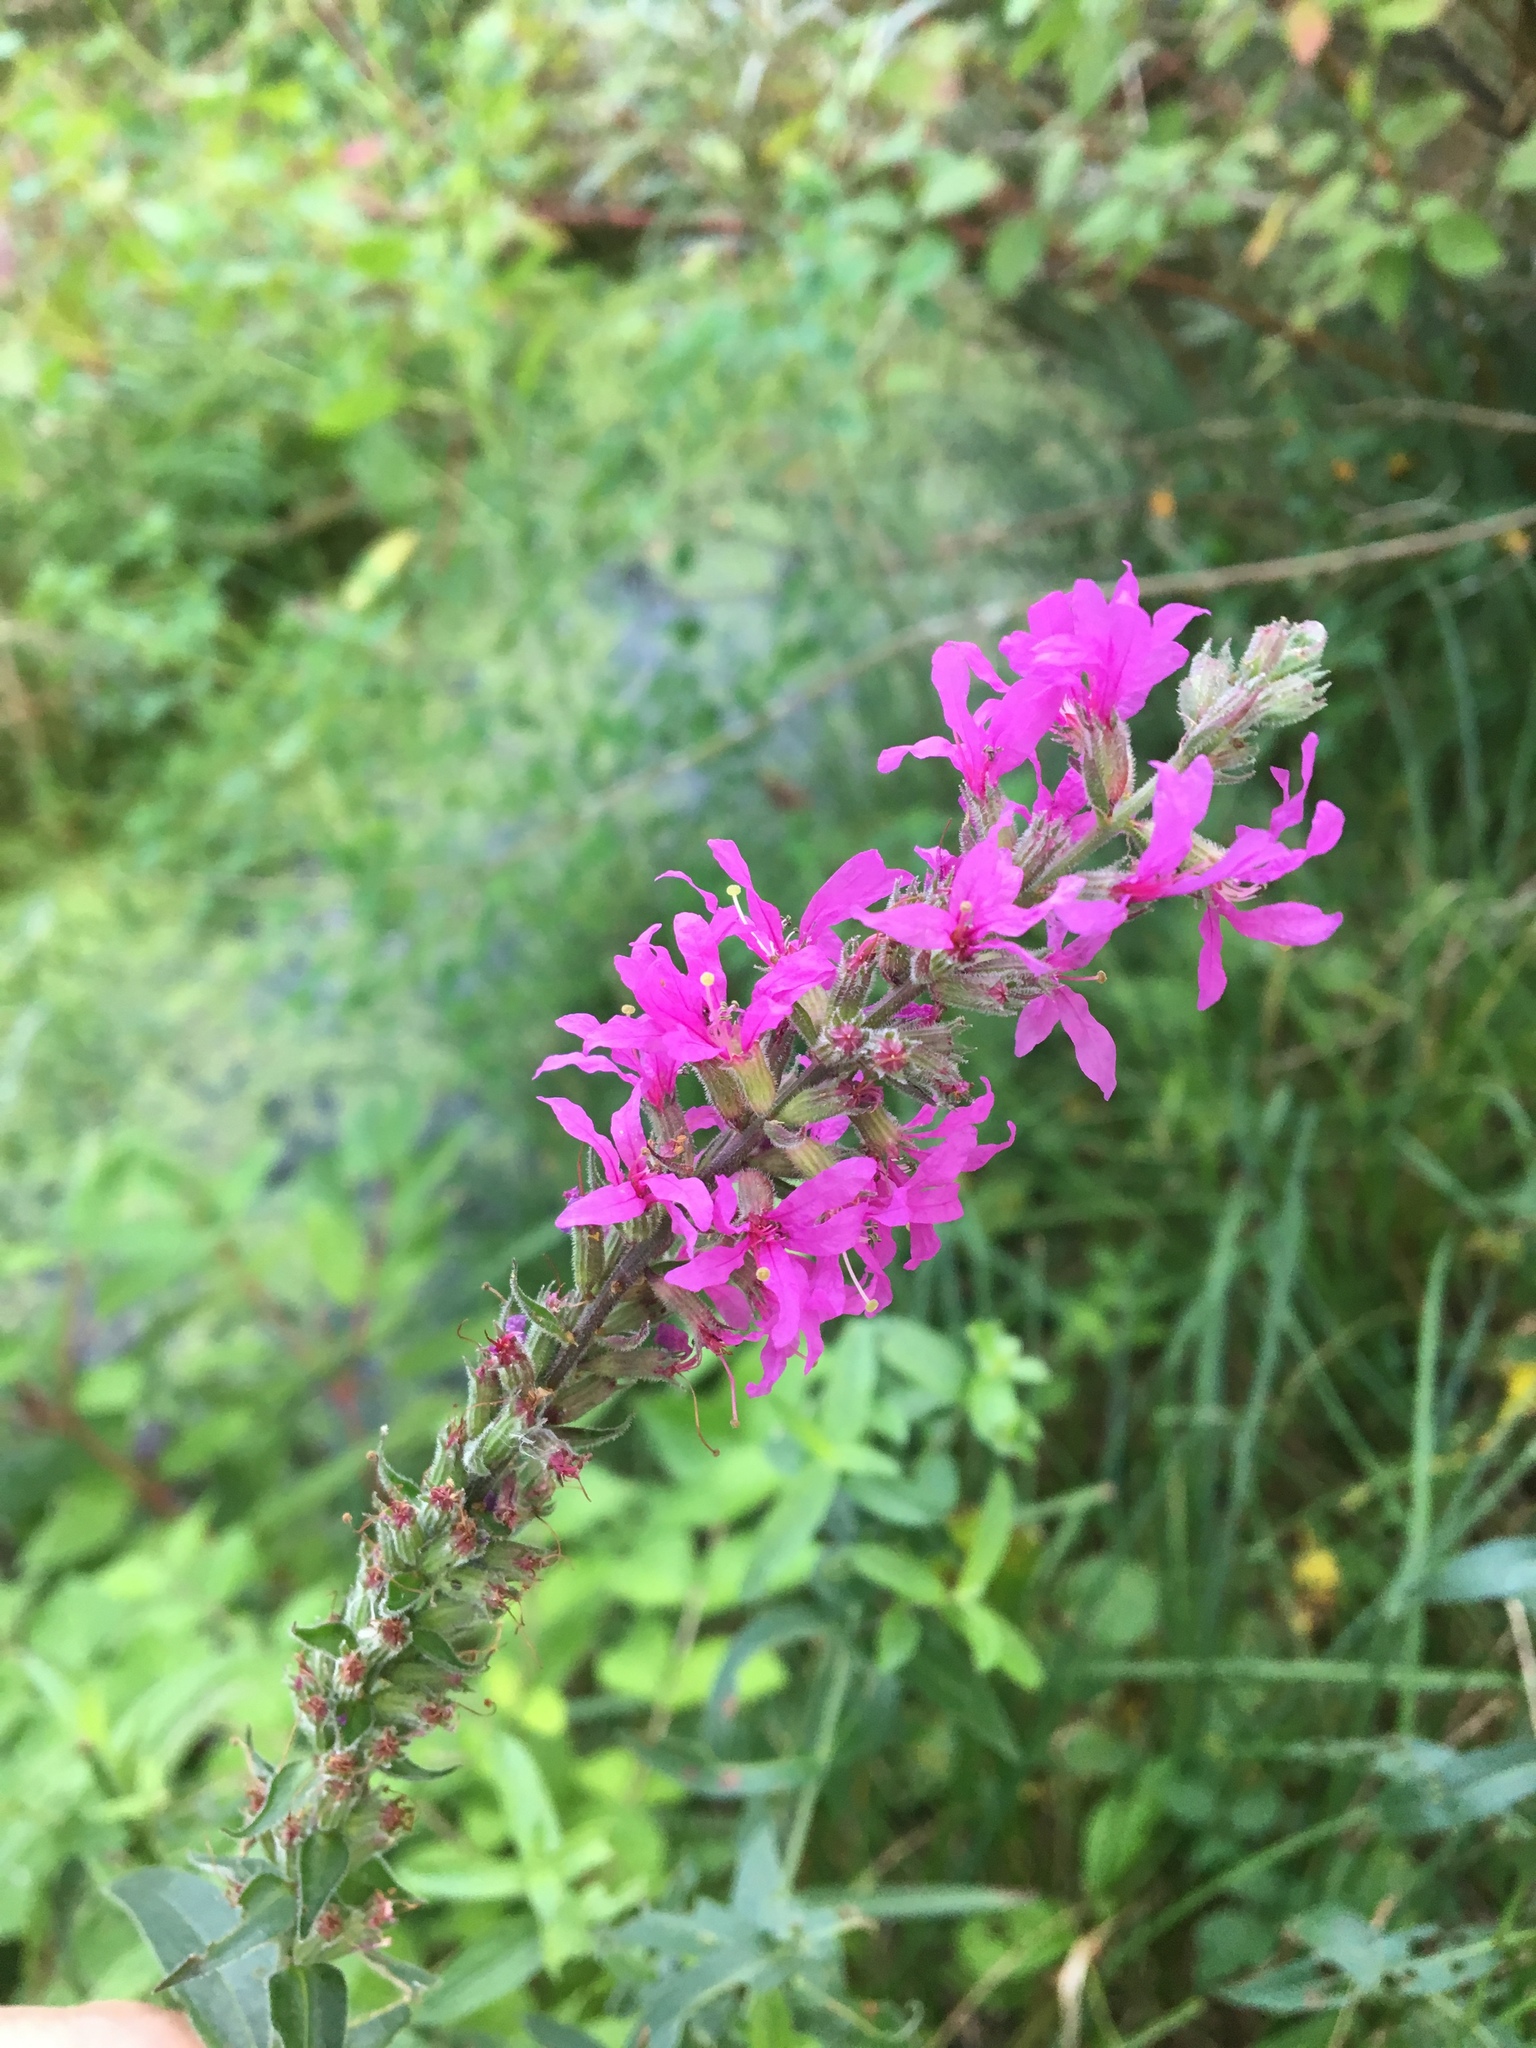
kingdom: Plantae
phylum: Tracheophyta
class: Magnoliopsida
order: Myrtales
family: Lythraceae
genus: Lythrum
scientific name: Lythrum salicaria
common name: Purple loosestrife
